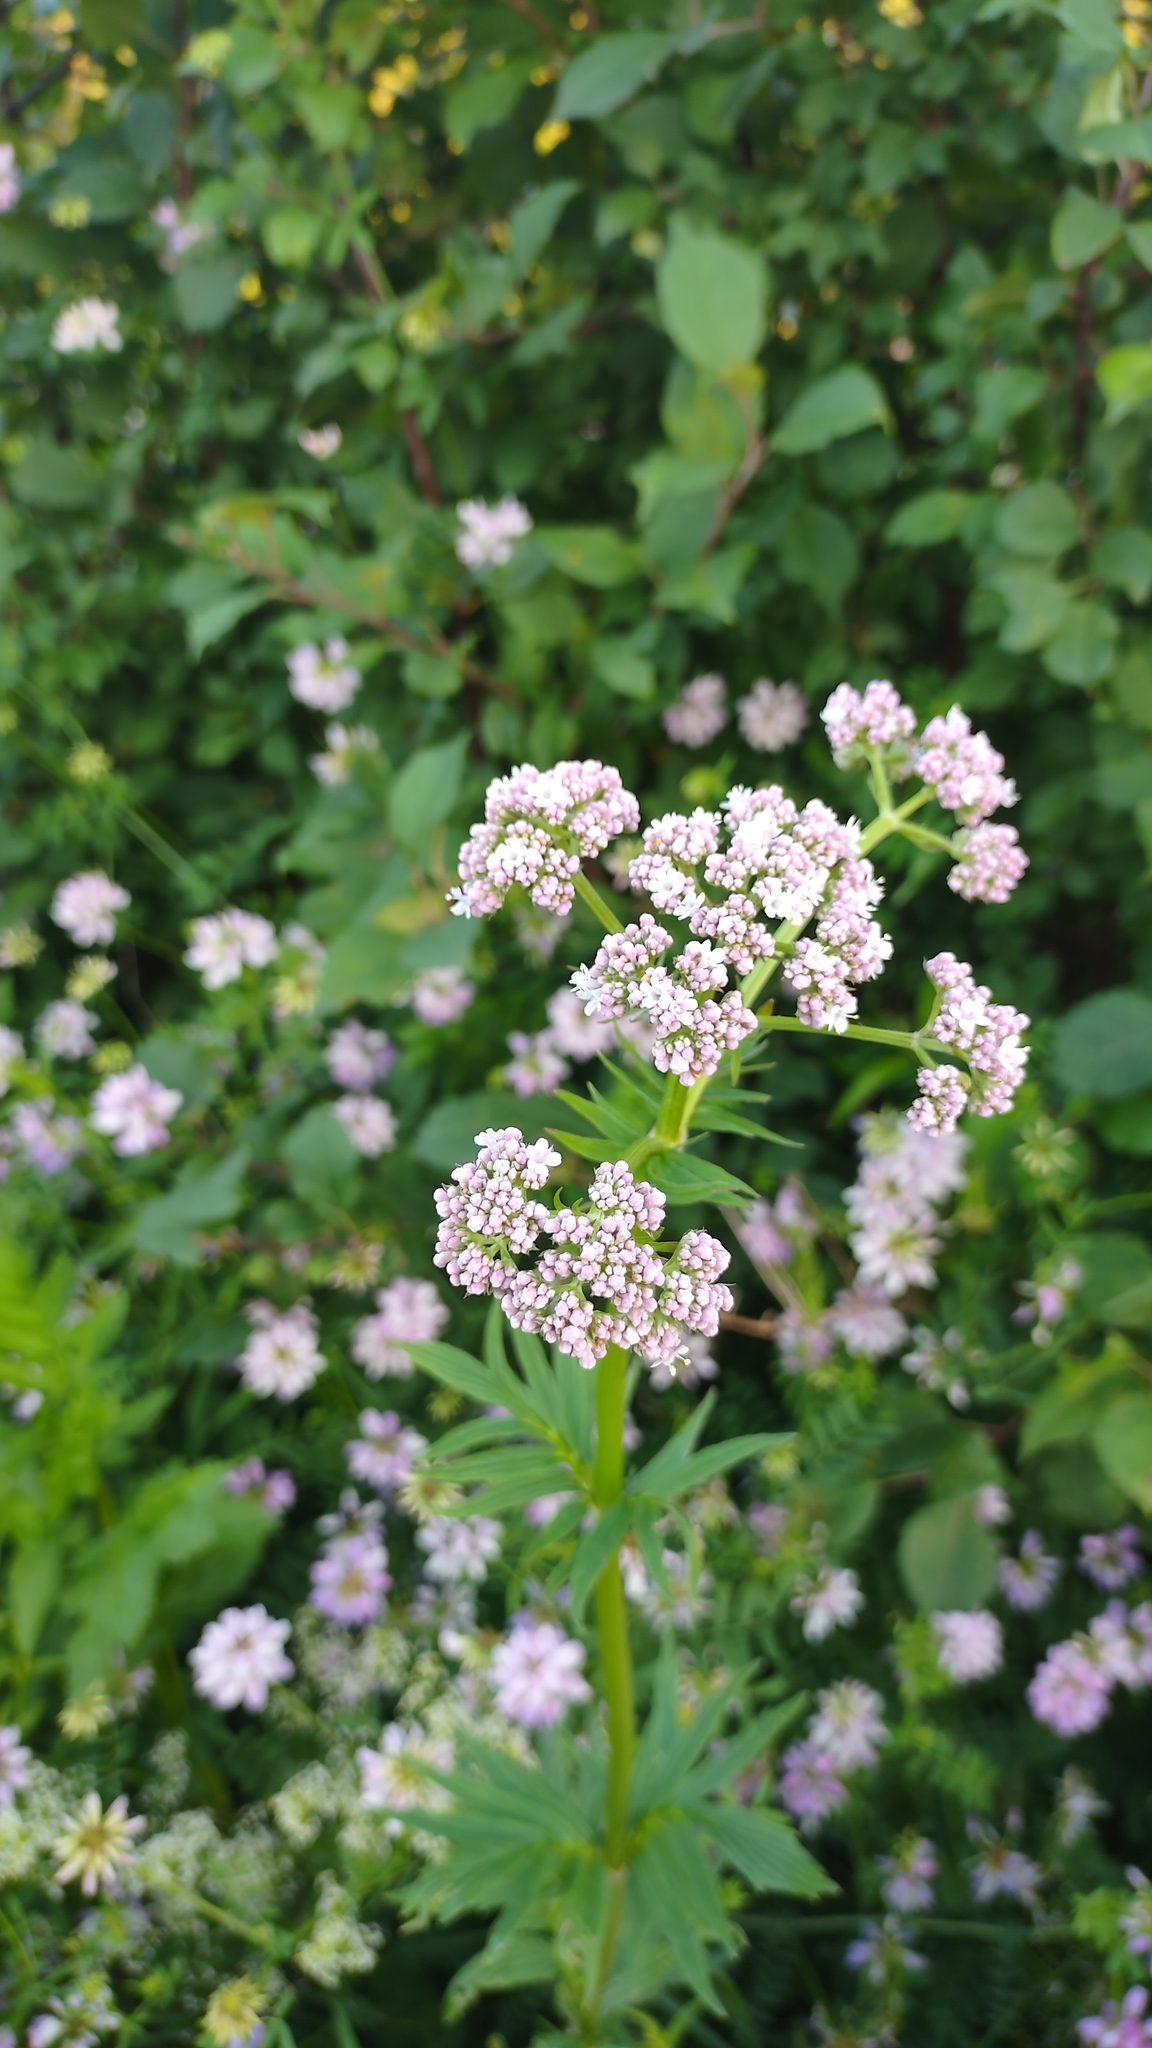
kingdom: Plantae
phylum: Tracheophyta
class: Magnoliopsida
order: Dipsacales
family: Caprifoliaceae
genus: Valeriana
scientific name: Valeriana officinalis
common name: Common valerian
